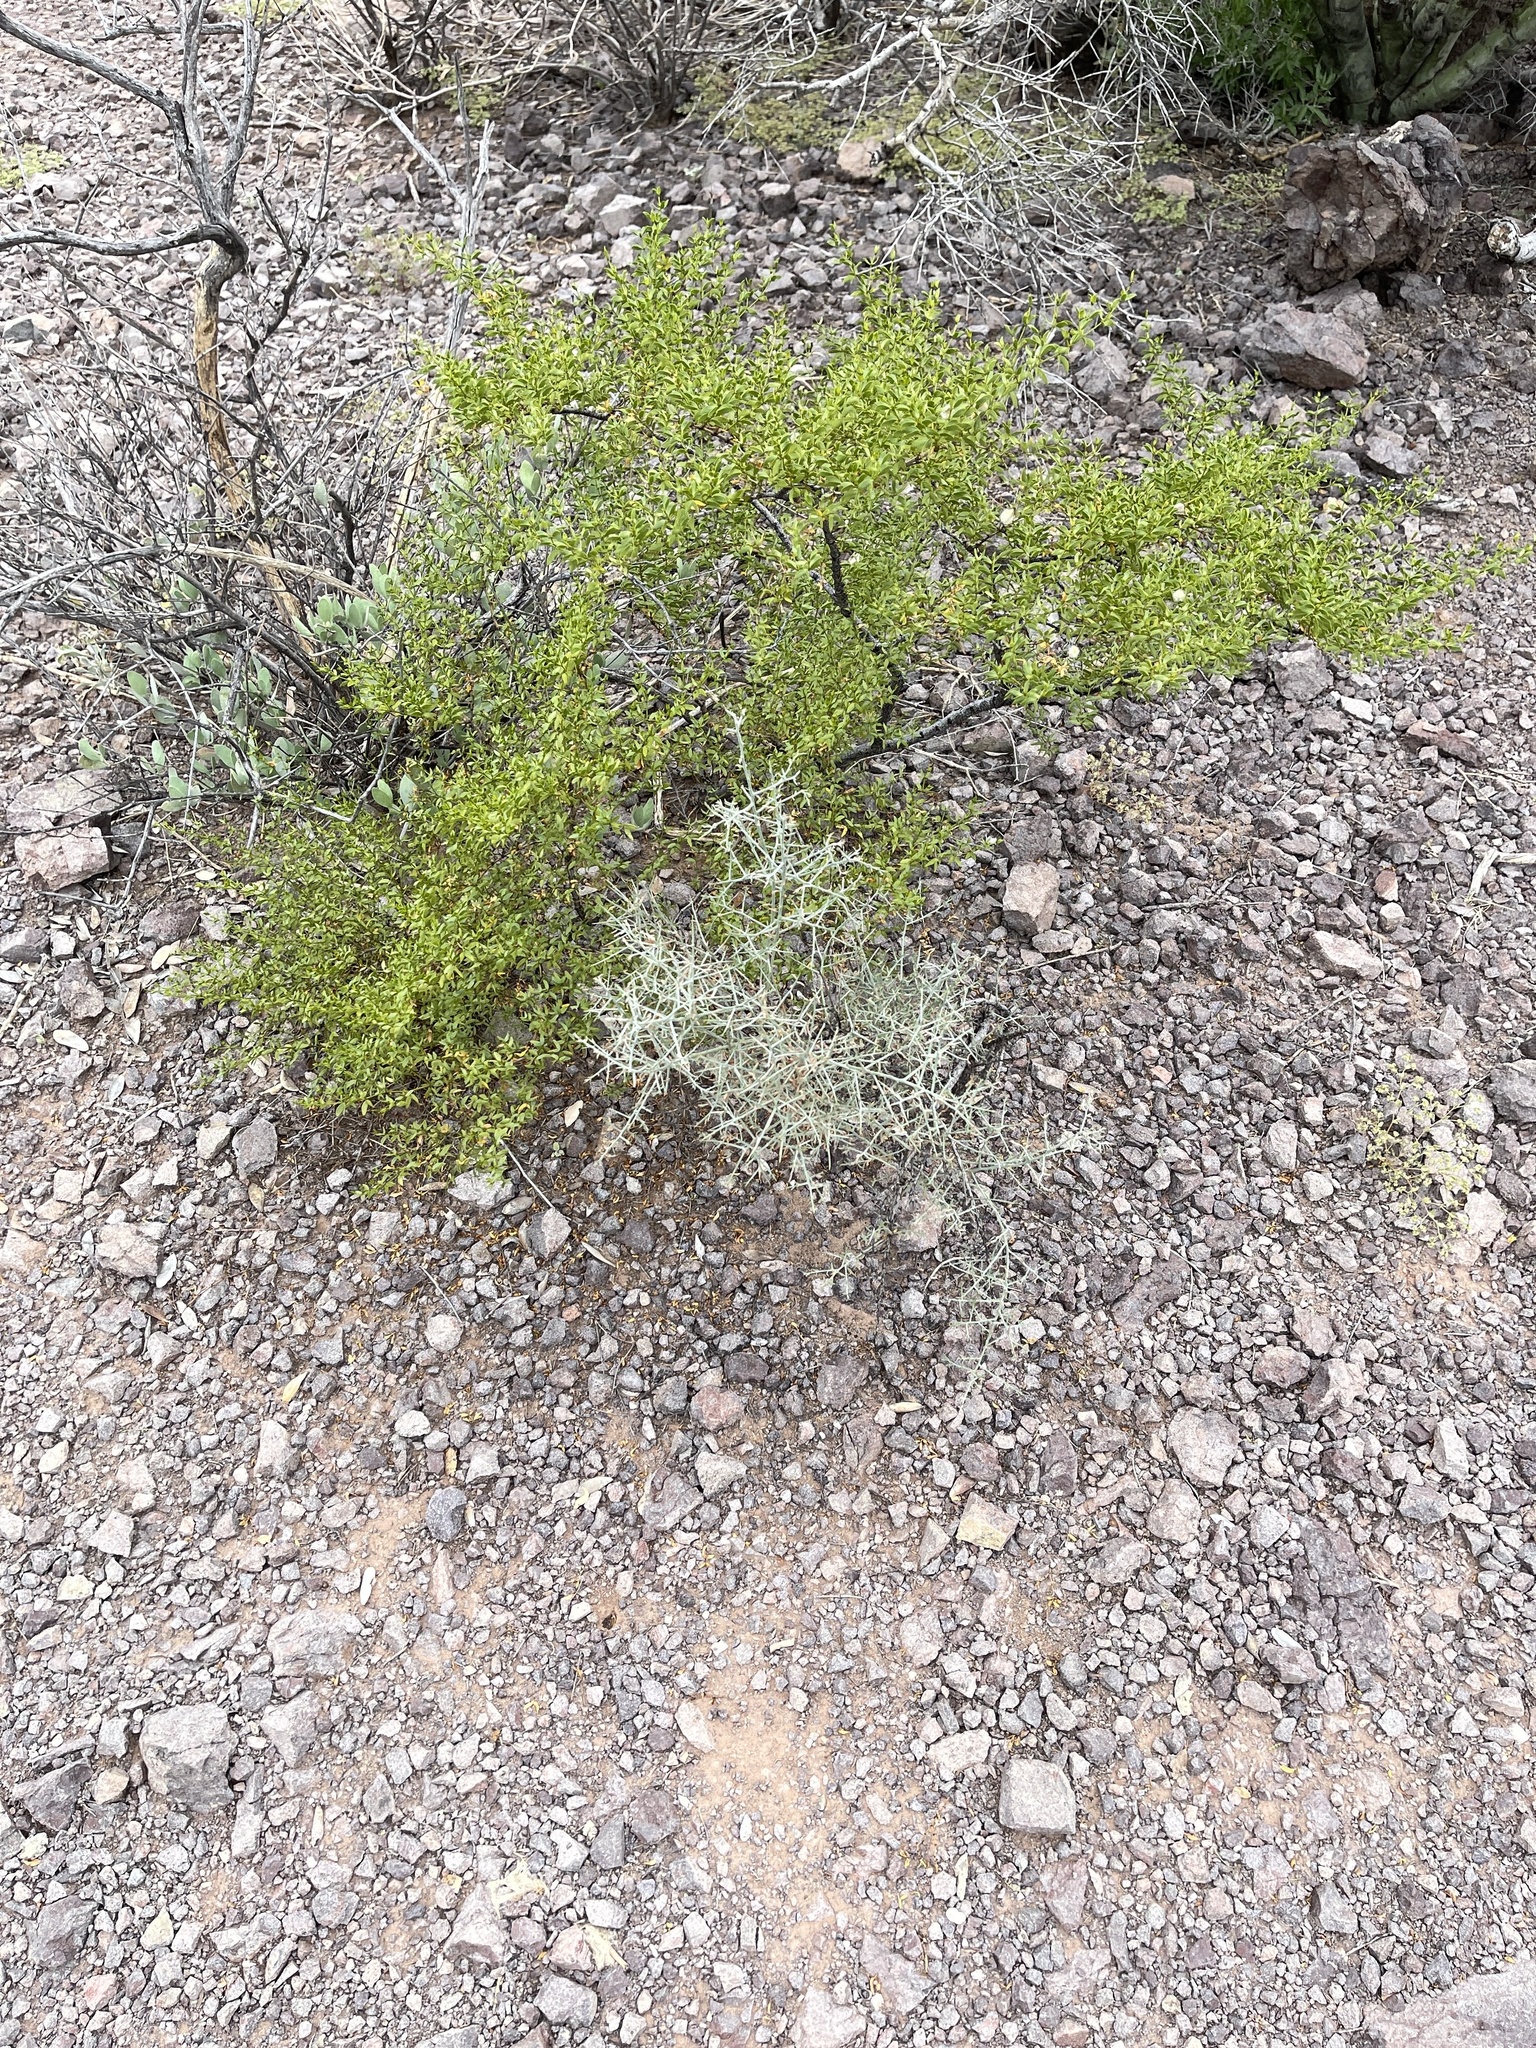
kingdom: Plantae
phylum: Tracheophyta
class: Magnoliopsida
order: Rosales
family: Rhamnaceae
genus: Sarcomphalus
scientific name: Sarcomphalus obtusifolius
